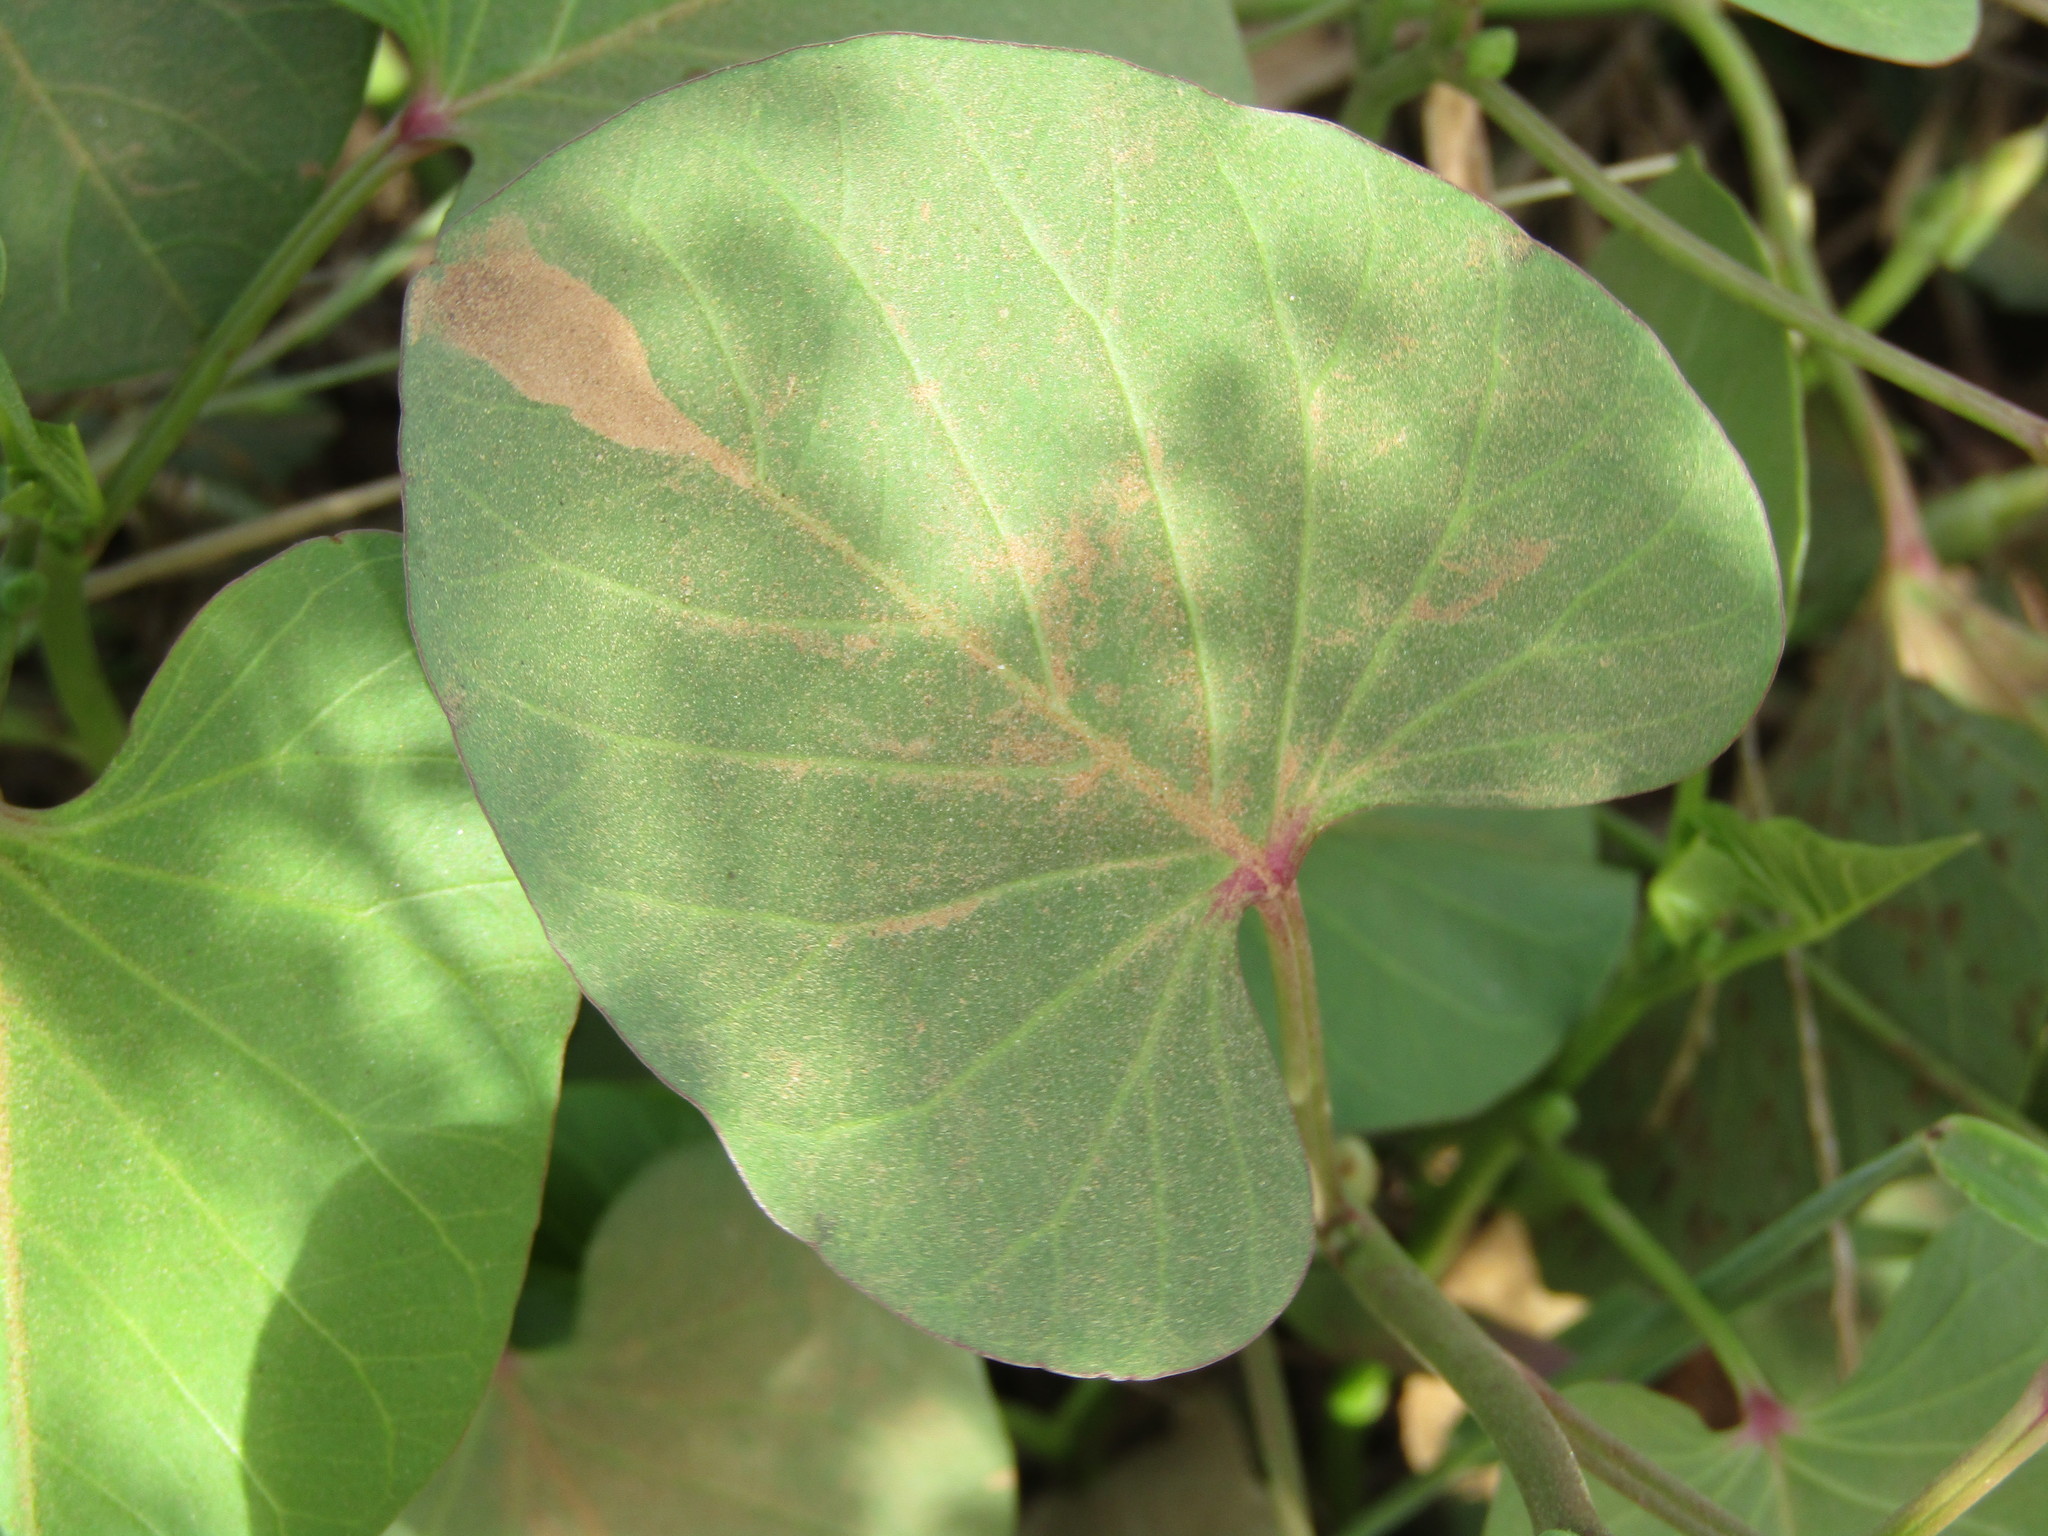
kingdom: Plantae
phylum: Tracheophyta
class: Magnoliopsida
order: Solanales
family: Convolvulaceae
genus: Ipomoea
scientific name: Ipomoea asarifolia
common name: Ginger-leaf morning-glory
